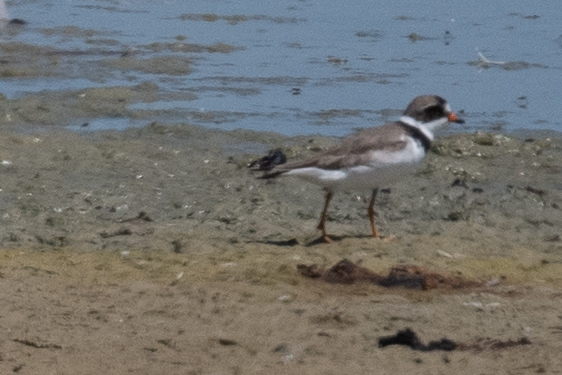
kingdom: Animalia
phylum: Chordata
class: Aves
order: Charadriiformes
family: Charadriidae
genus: Charadrius
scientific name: Charadrius semipalmatus
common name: Semipalmated plover
